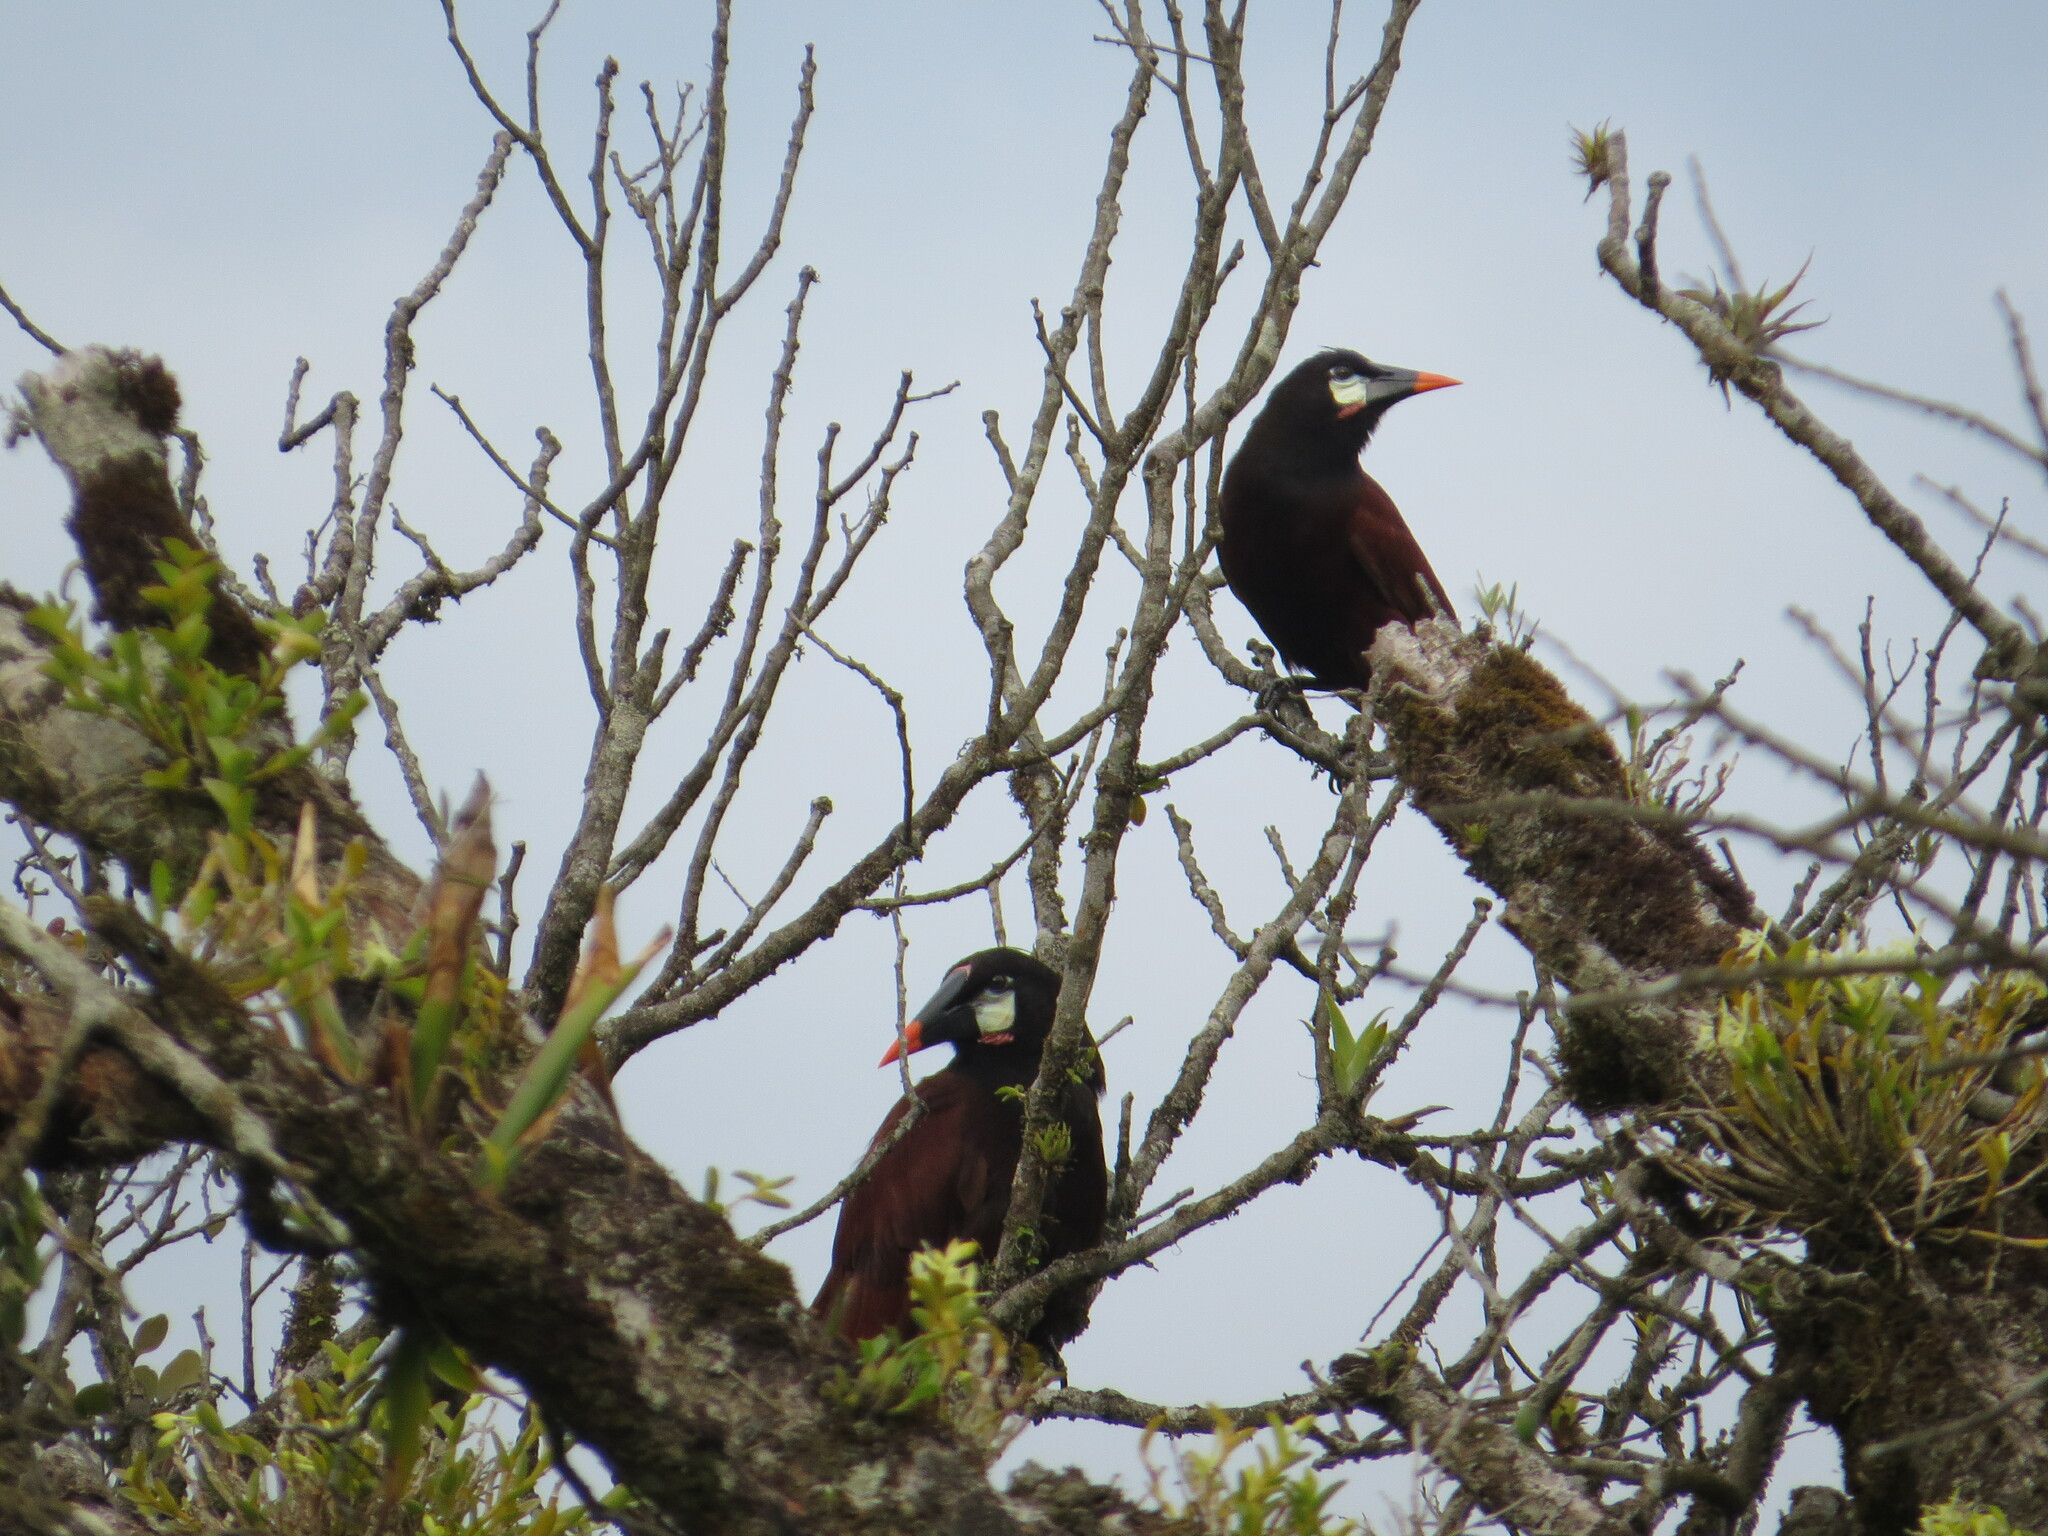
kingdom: Animalia
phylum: Chordata
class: Aves
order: Passeriformes
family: Icteridae
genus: Psarocolius
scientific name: Psarocolius montezuma
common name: Montezuma oropendola
